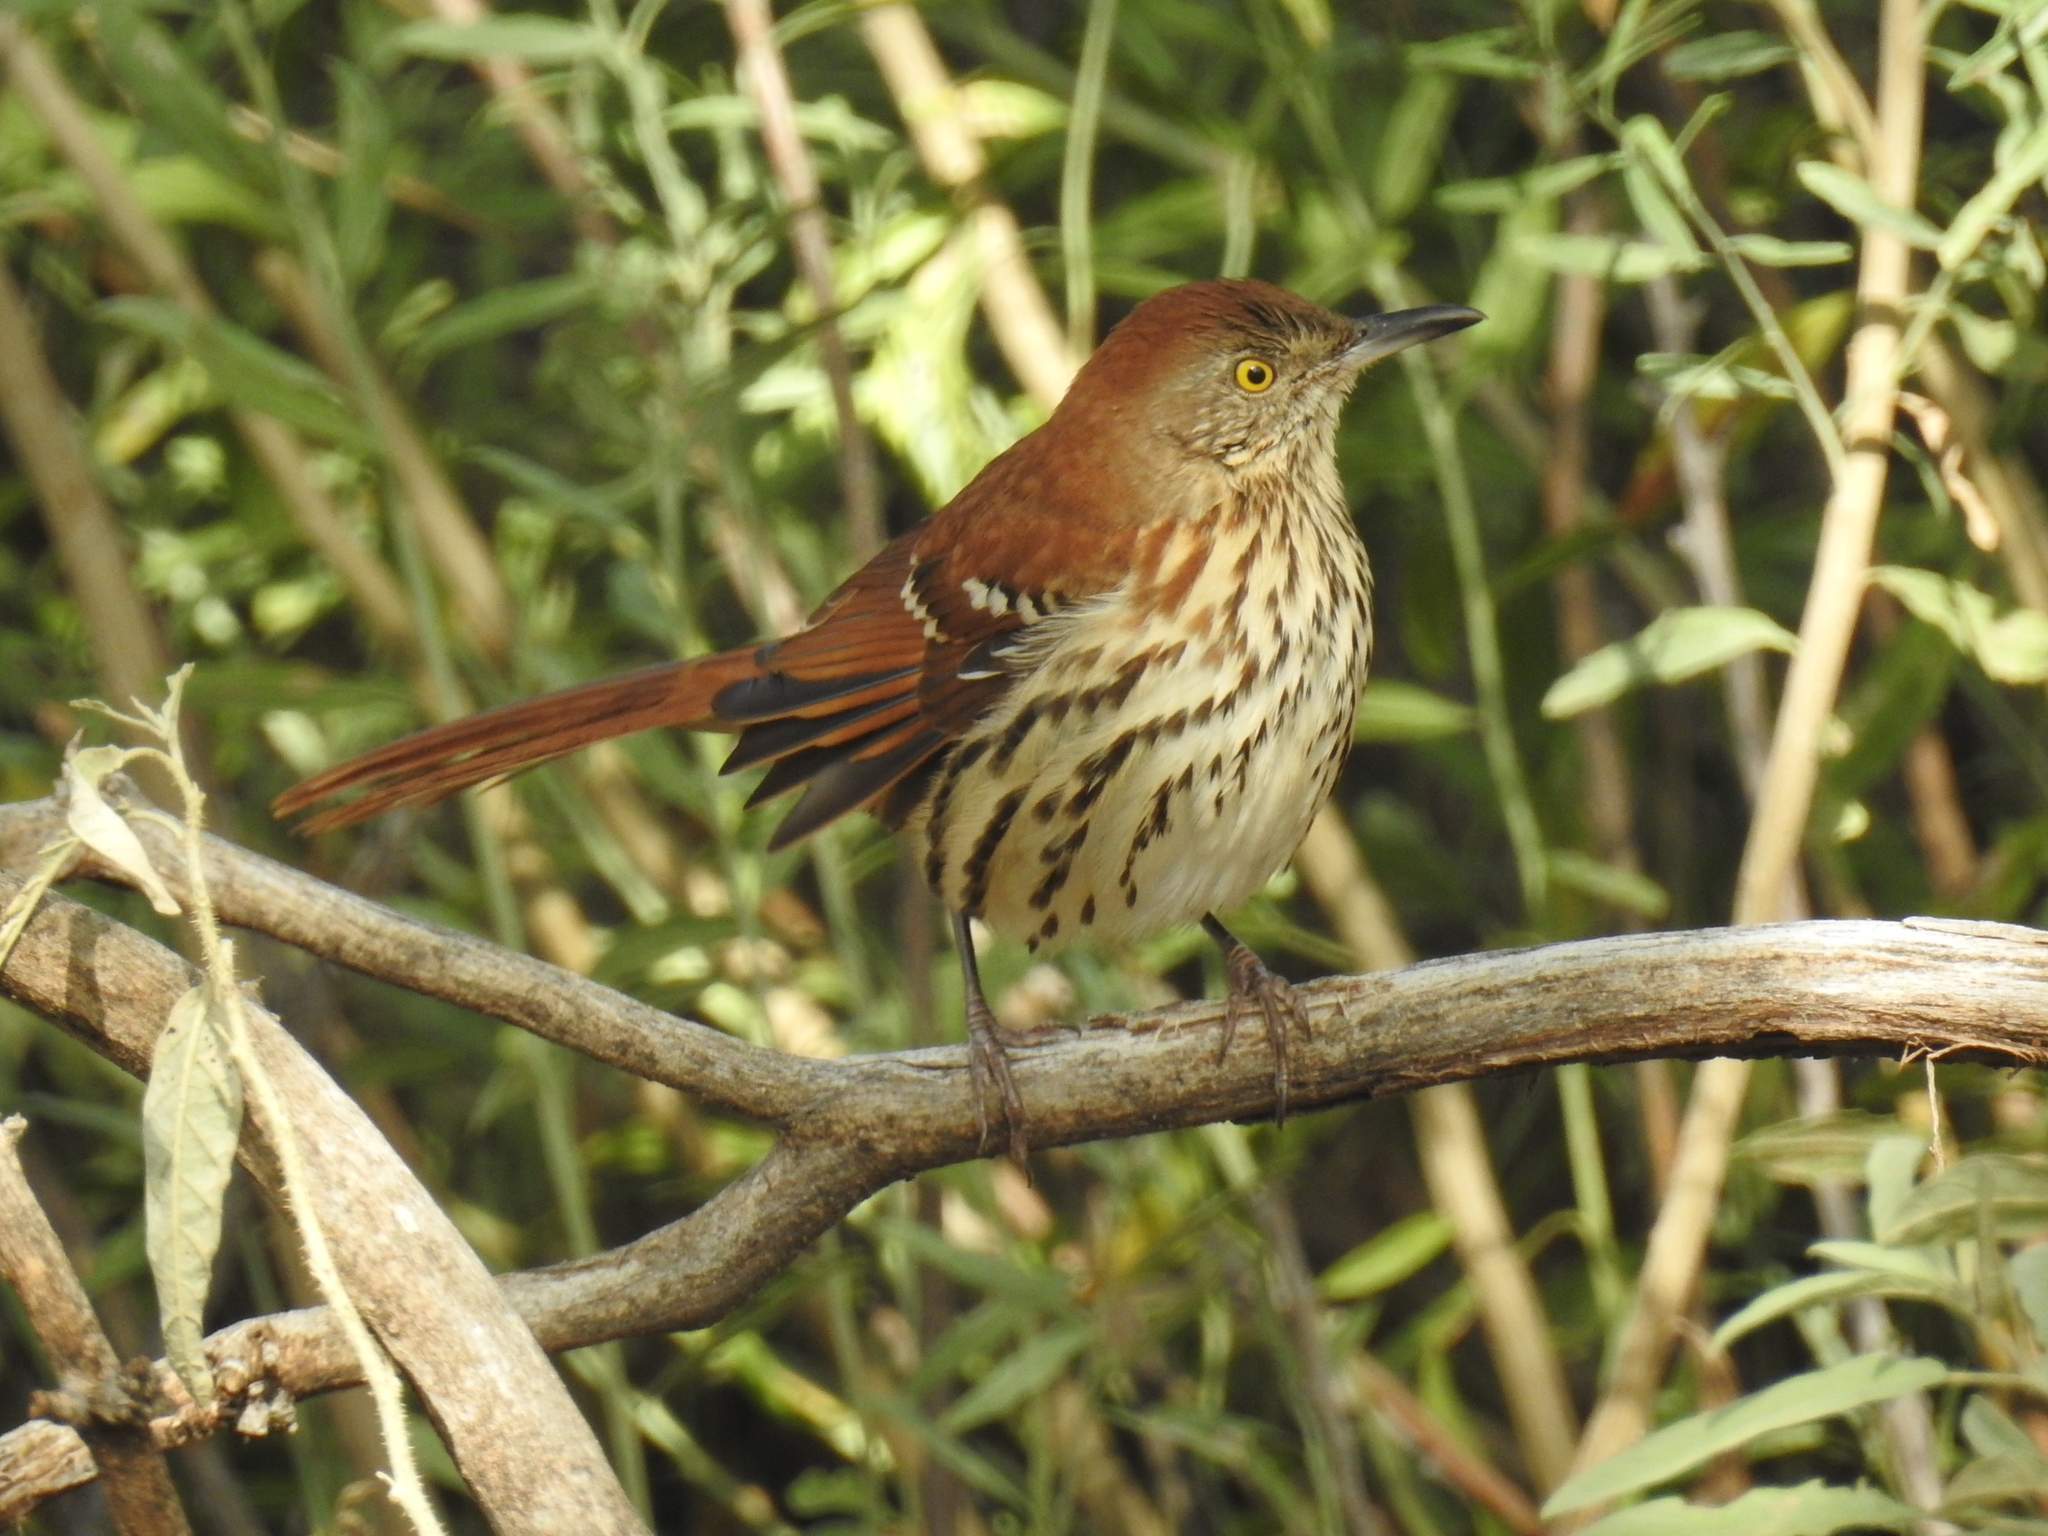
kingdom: Animalia
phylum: Chordata
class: Aves
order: Passeriformes
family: Mimidae
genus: Toxostoma
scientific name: Toxostoma rufum
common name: Brown thrasher
